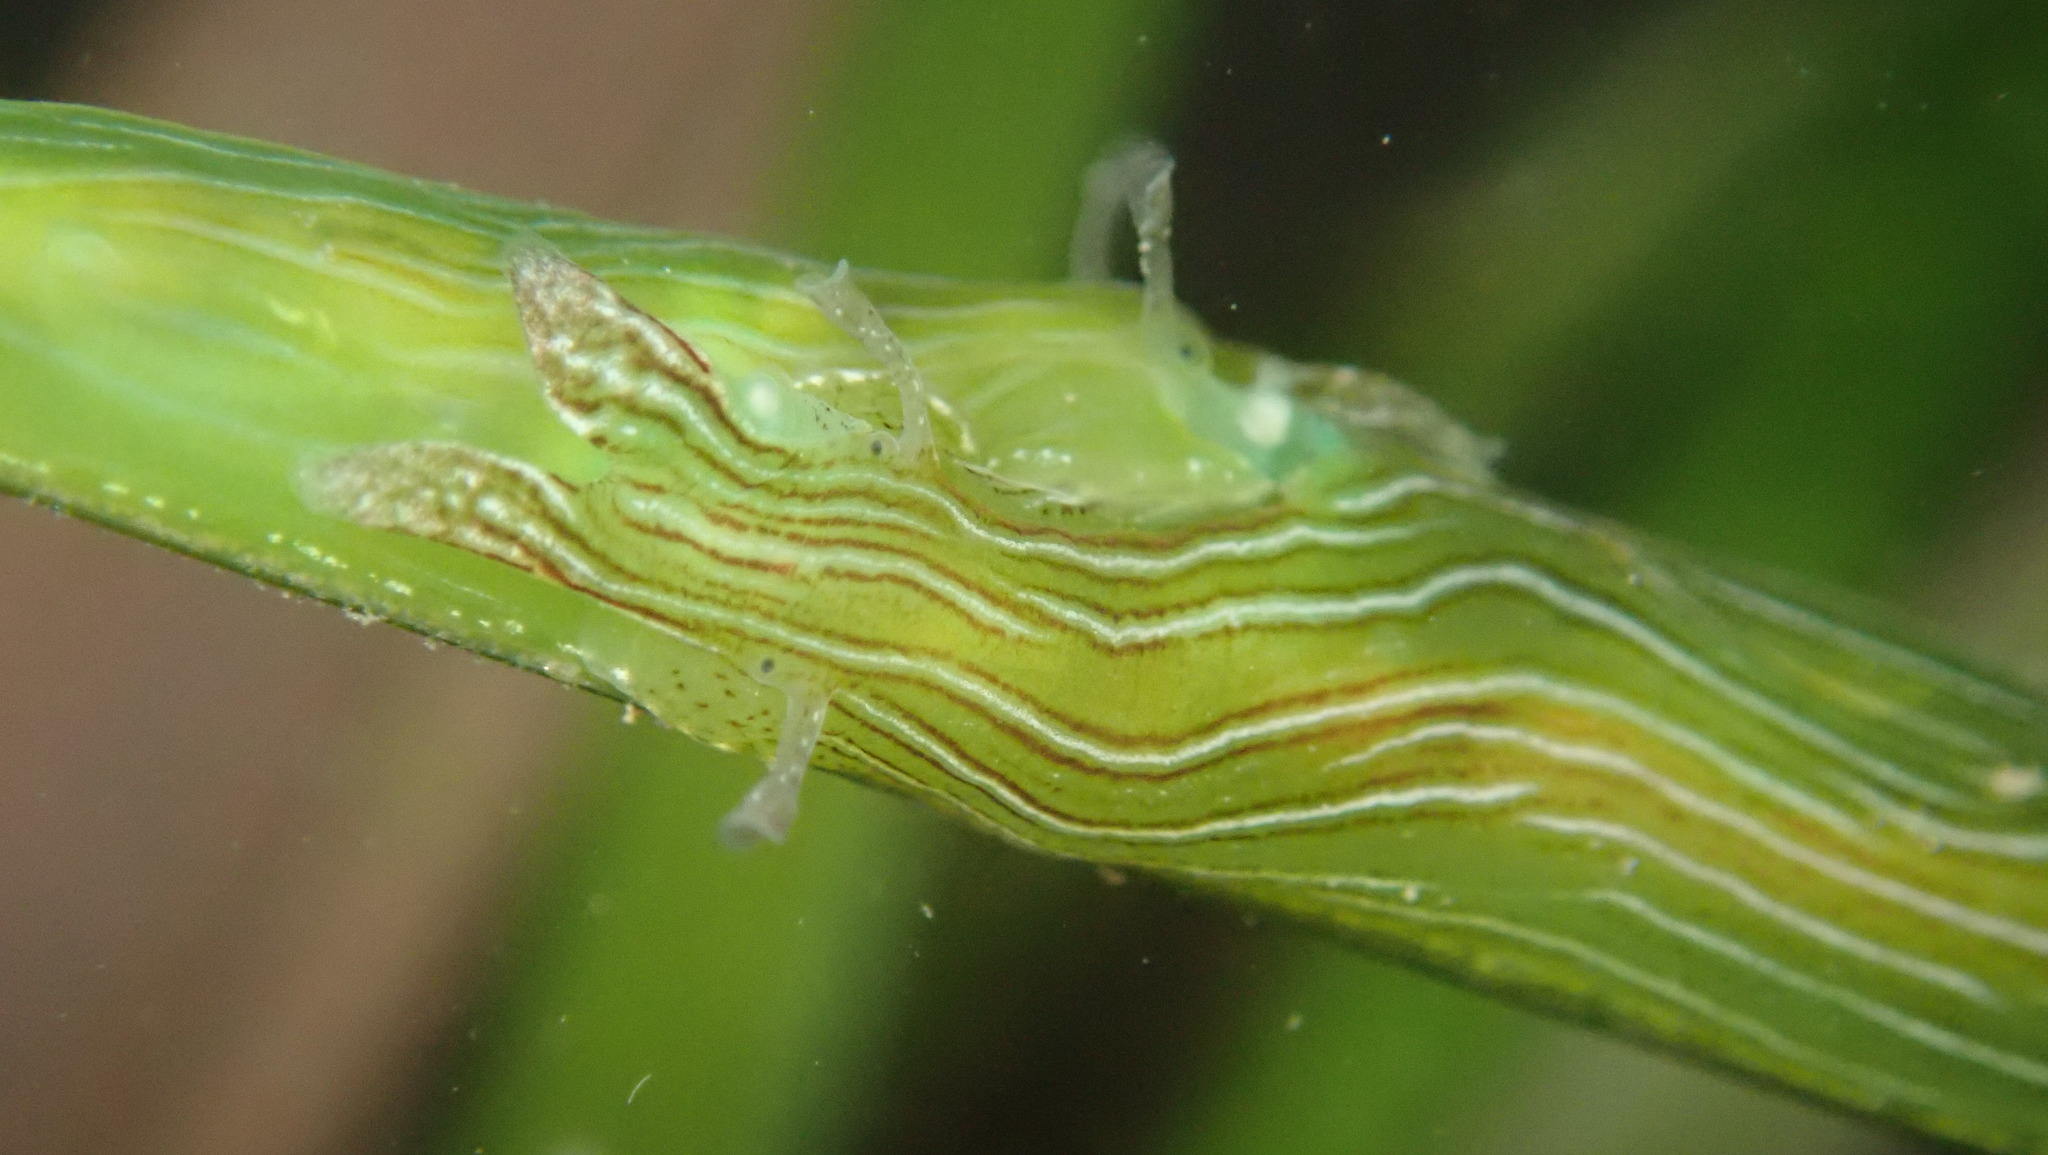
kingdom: Animalia
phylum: Mollusca
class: Gastropoda
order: Aplysiida
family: Aplysiidae
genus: Phyllaplysia
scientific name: Phyllaplysia taylori
